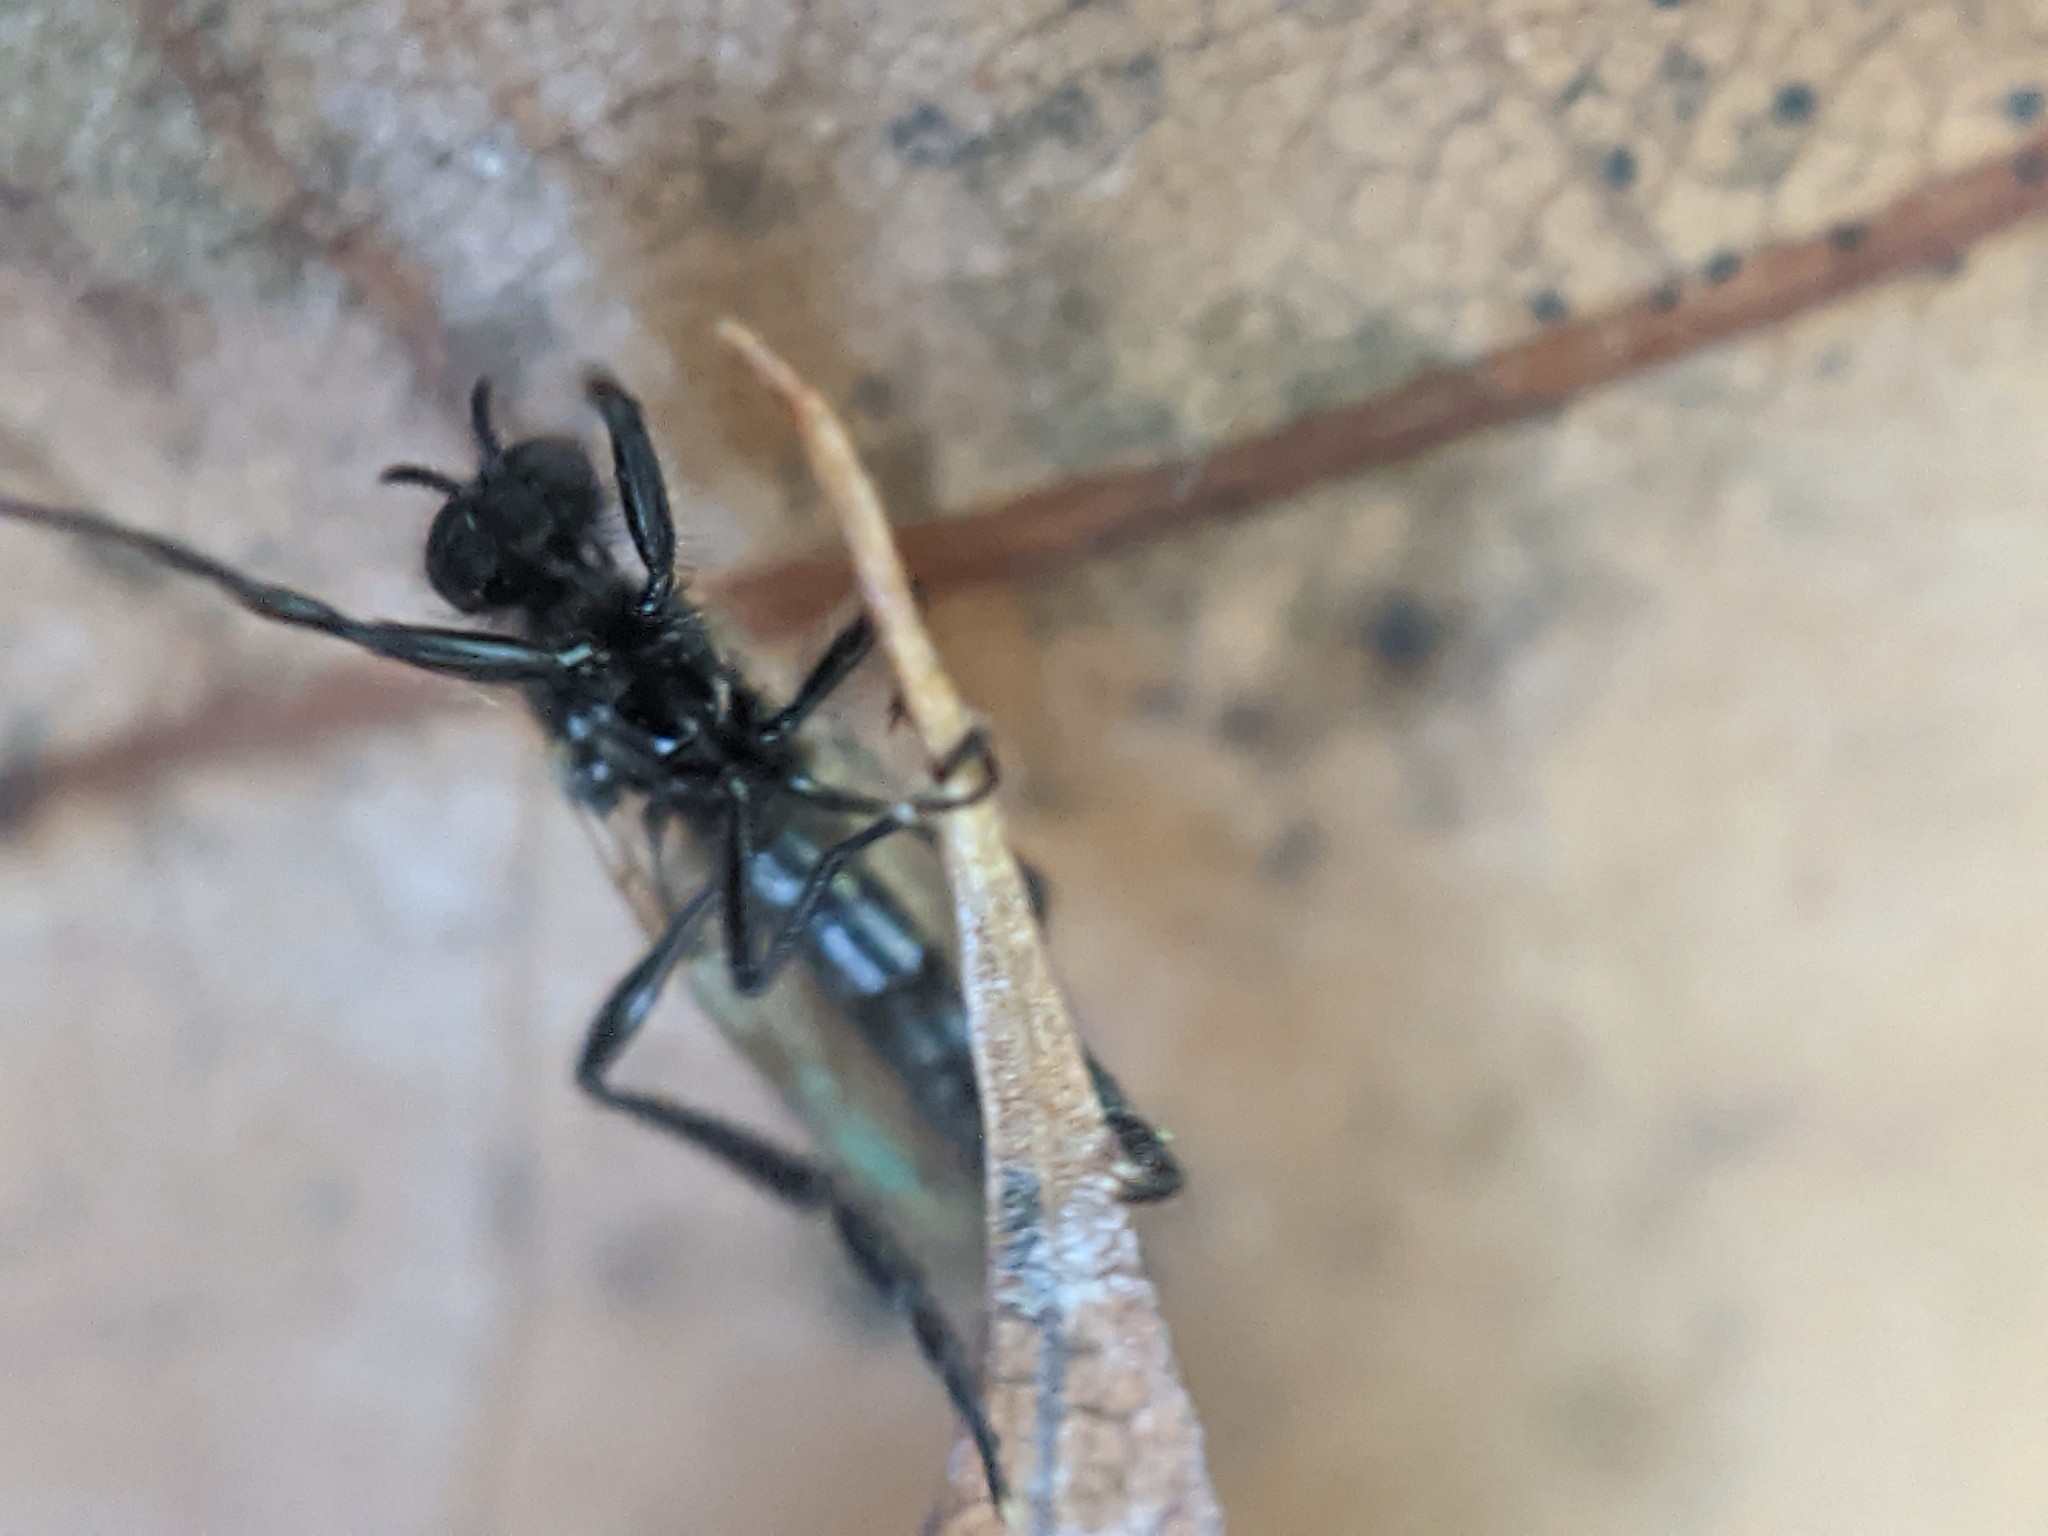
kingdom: Animalia
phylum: Arthropoda
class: Insecta
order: Diptera
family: Bibionidae
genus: Bibio
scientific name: Bibio longipes
